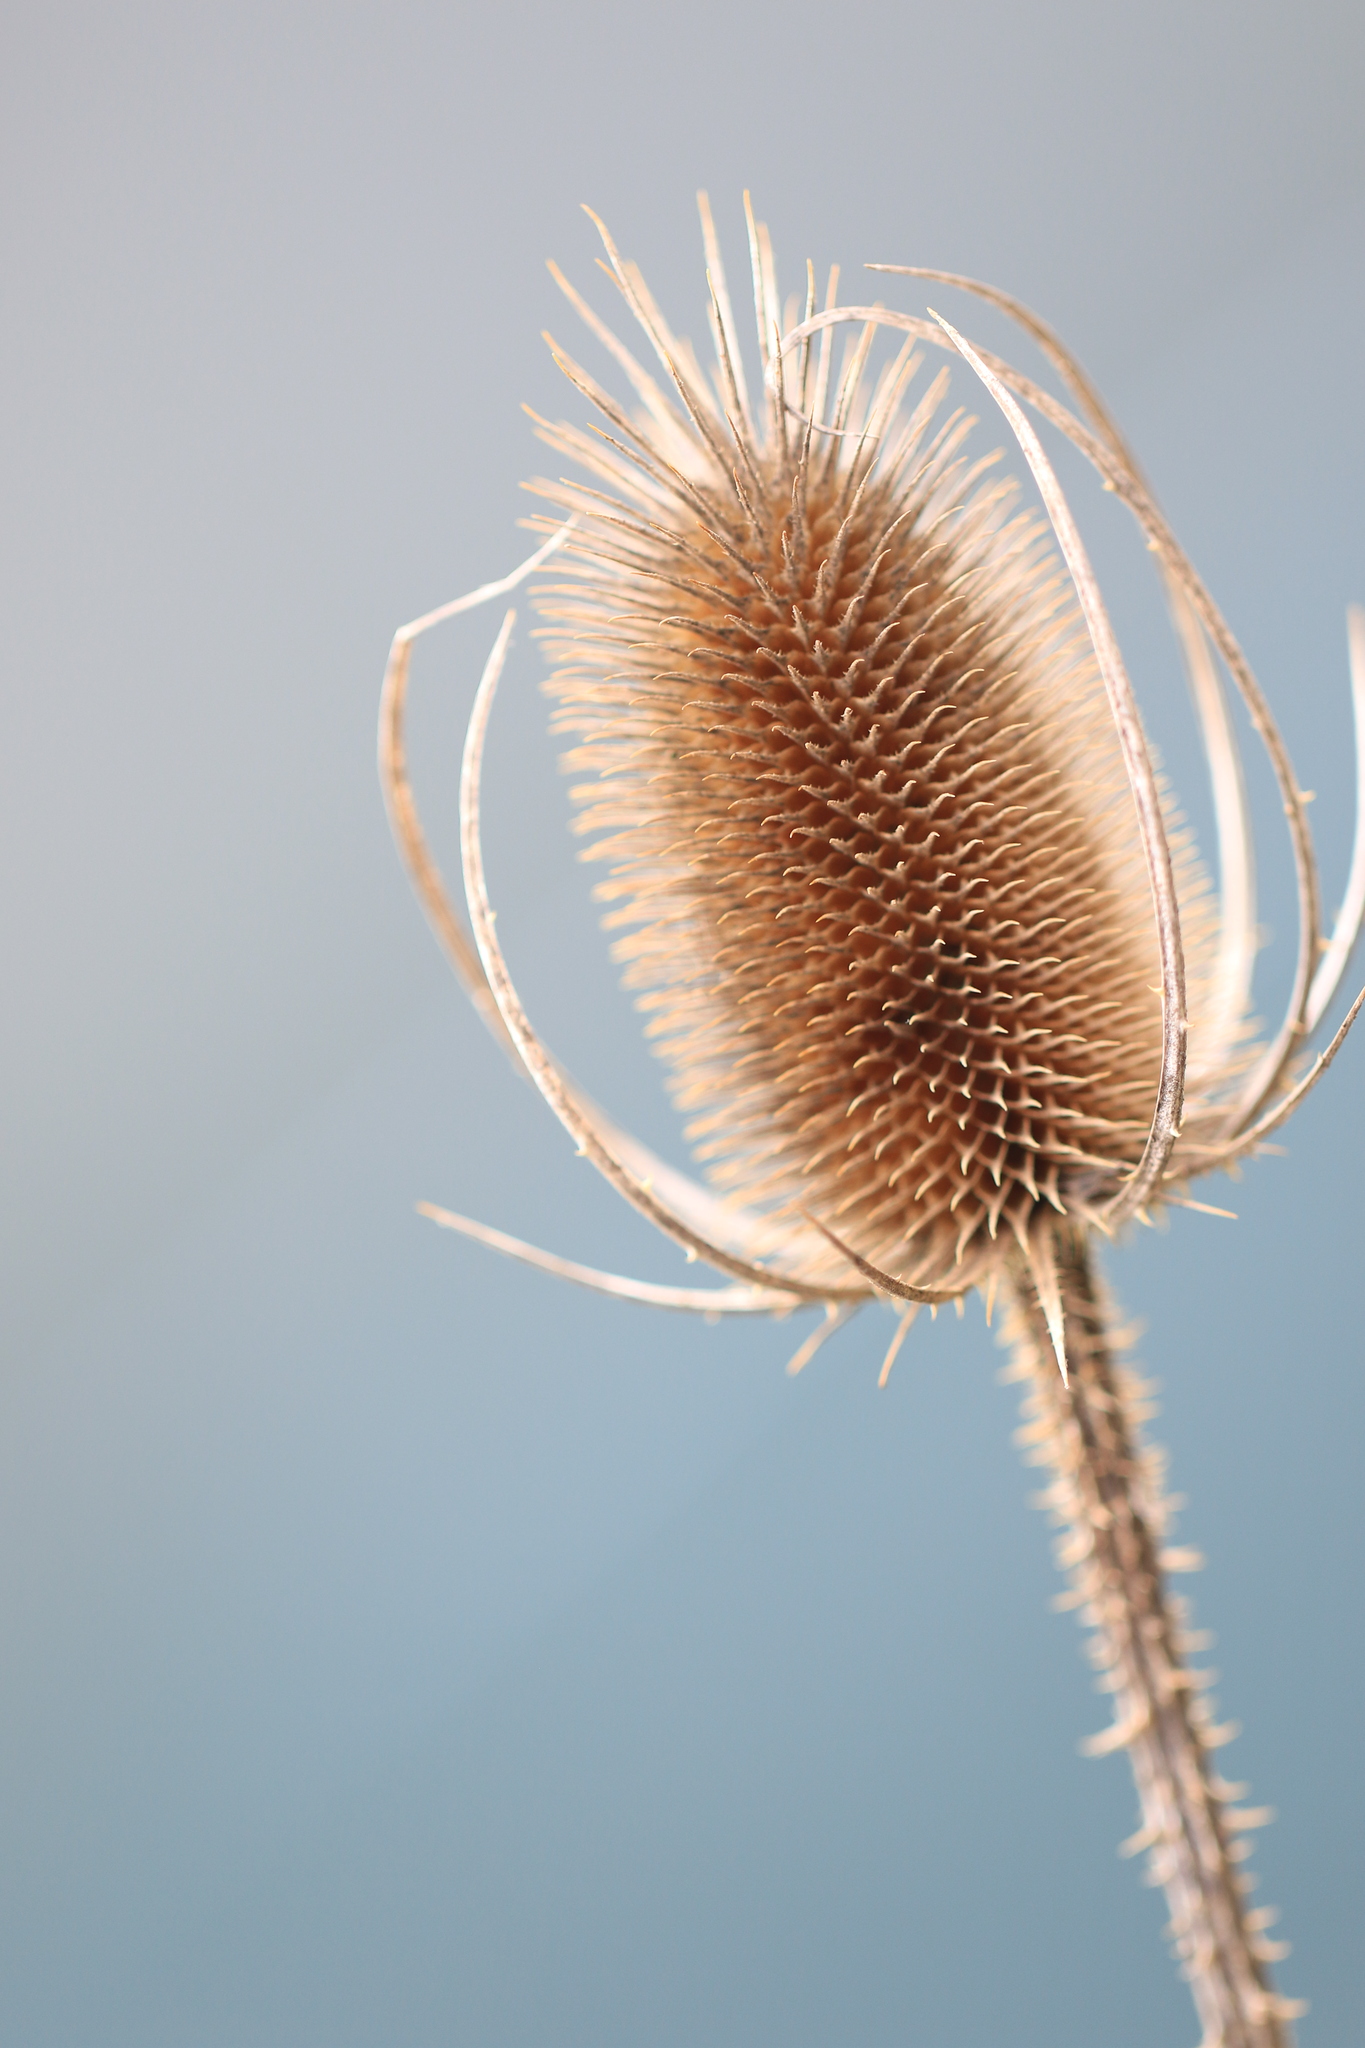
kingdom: Plantae
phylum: Tracheophyta
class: Magnoliopsida
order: Dipsacales
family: Caprifoliaceae
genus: Dipsacus
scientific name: Dipsacus fullonum
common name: Teasel
